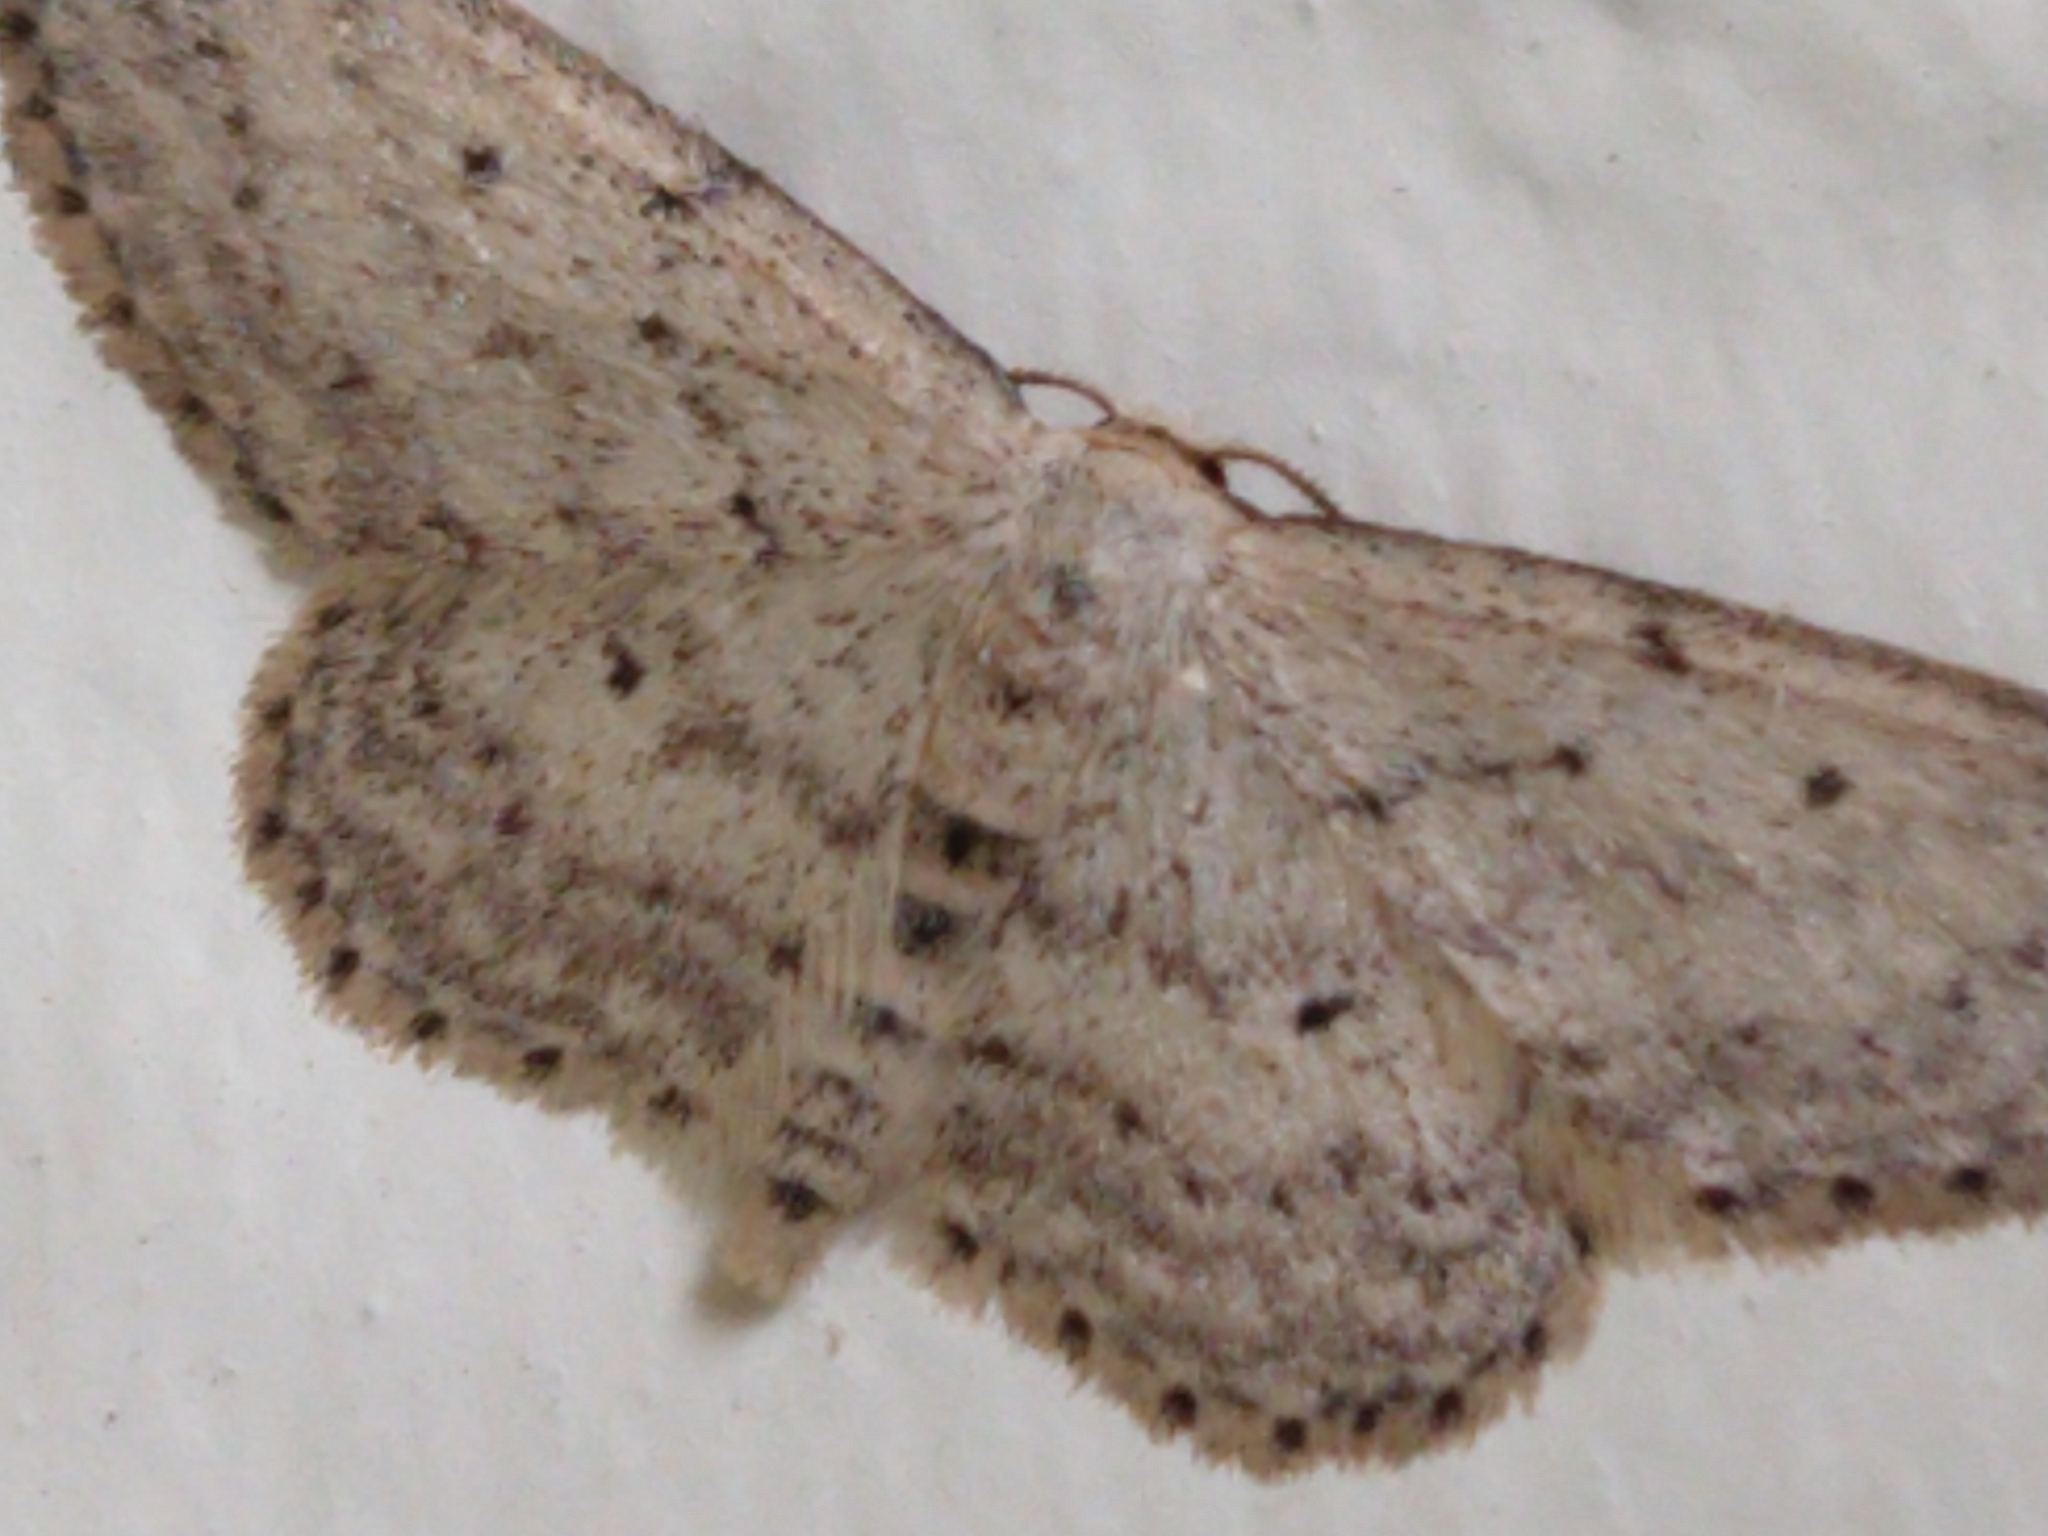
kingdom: Animalia
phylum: Arthropoda
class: Insecta
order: Lepidoptera
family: Geometridae
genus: Idaea
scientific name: Idaea seriata
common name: Small dusty wave
